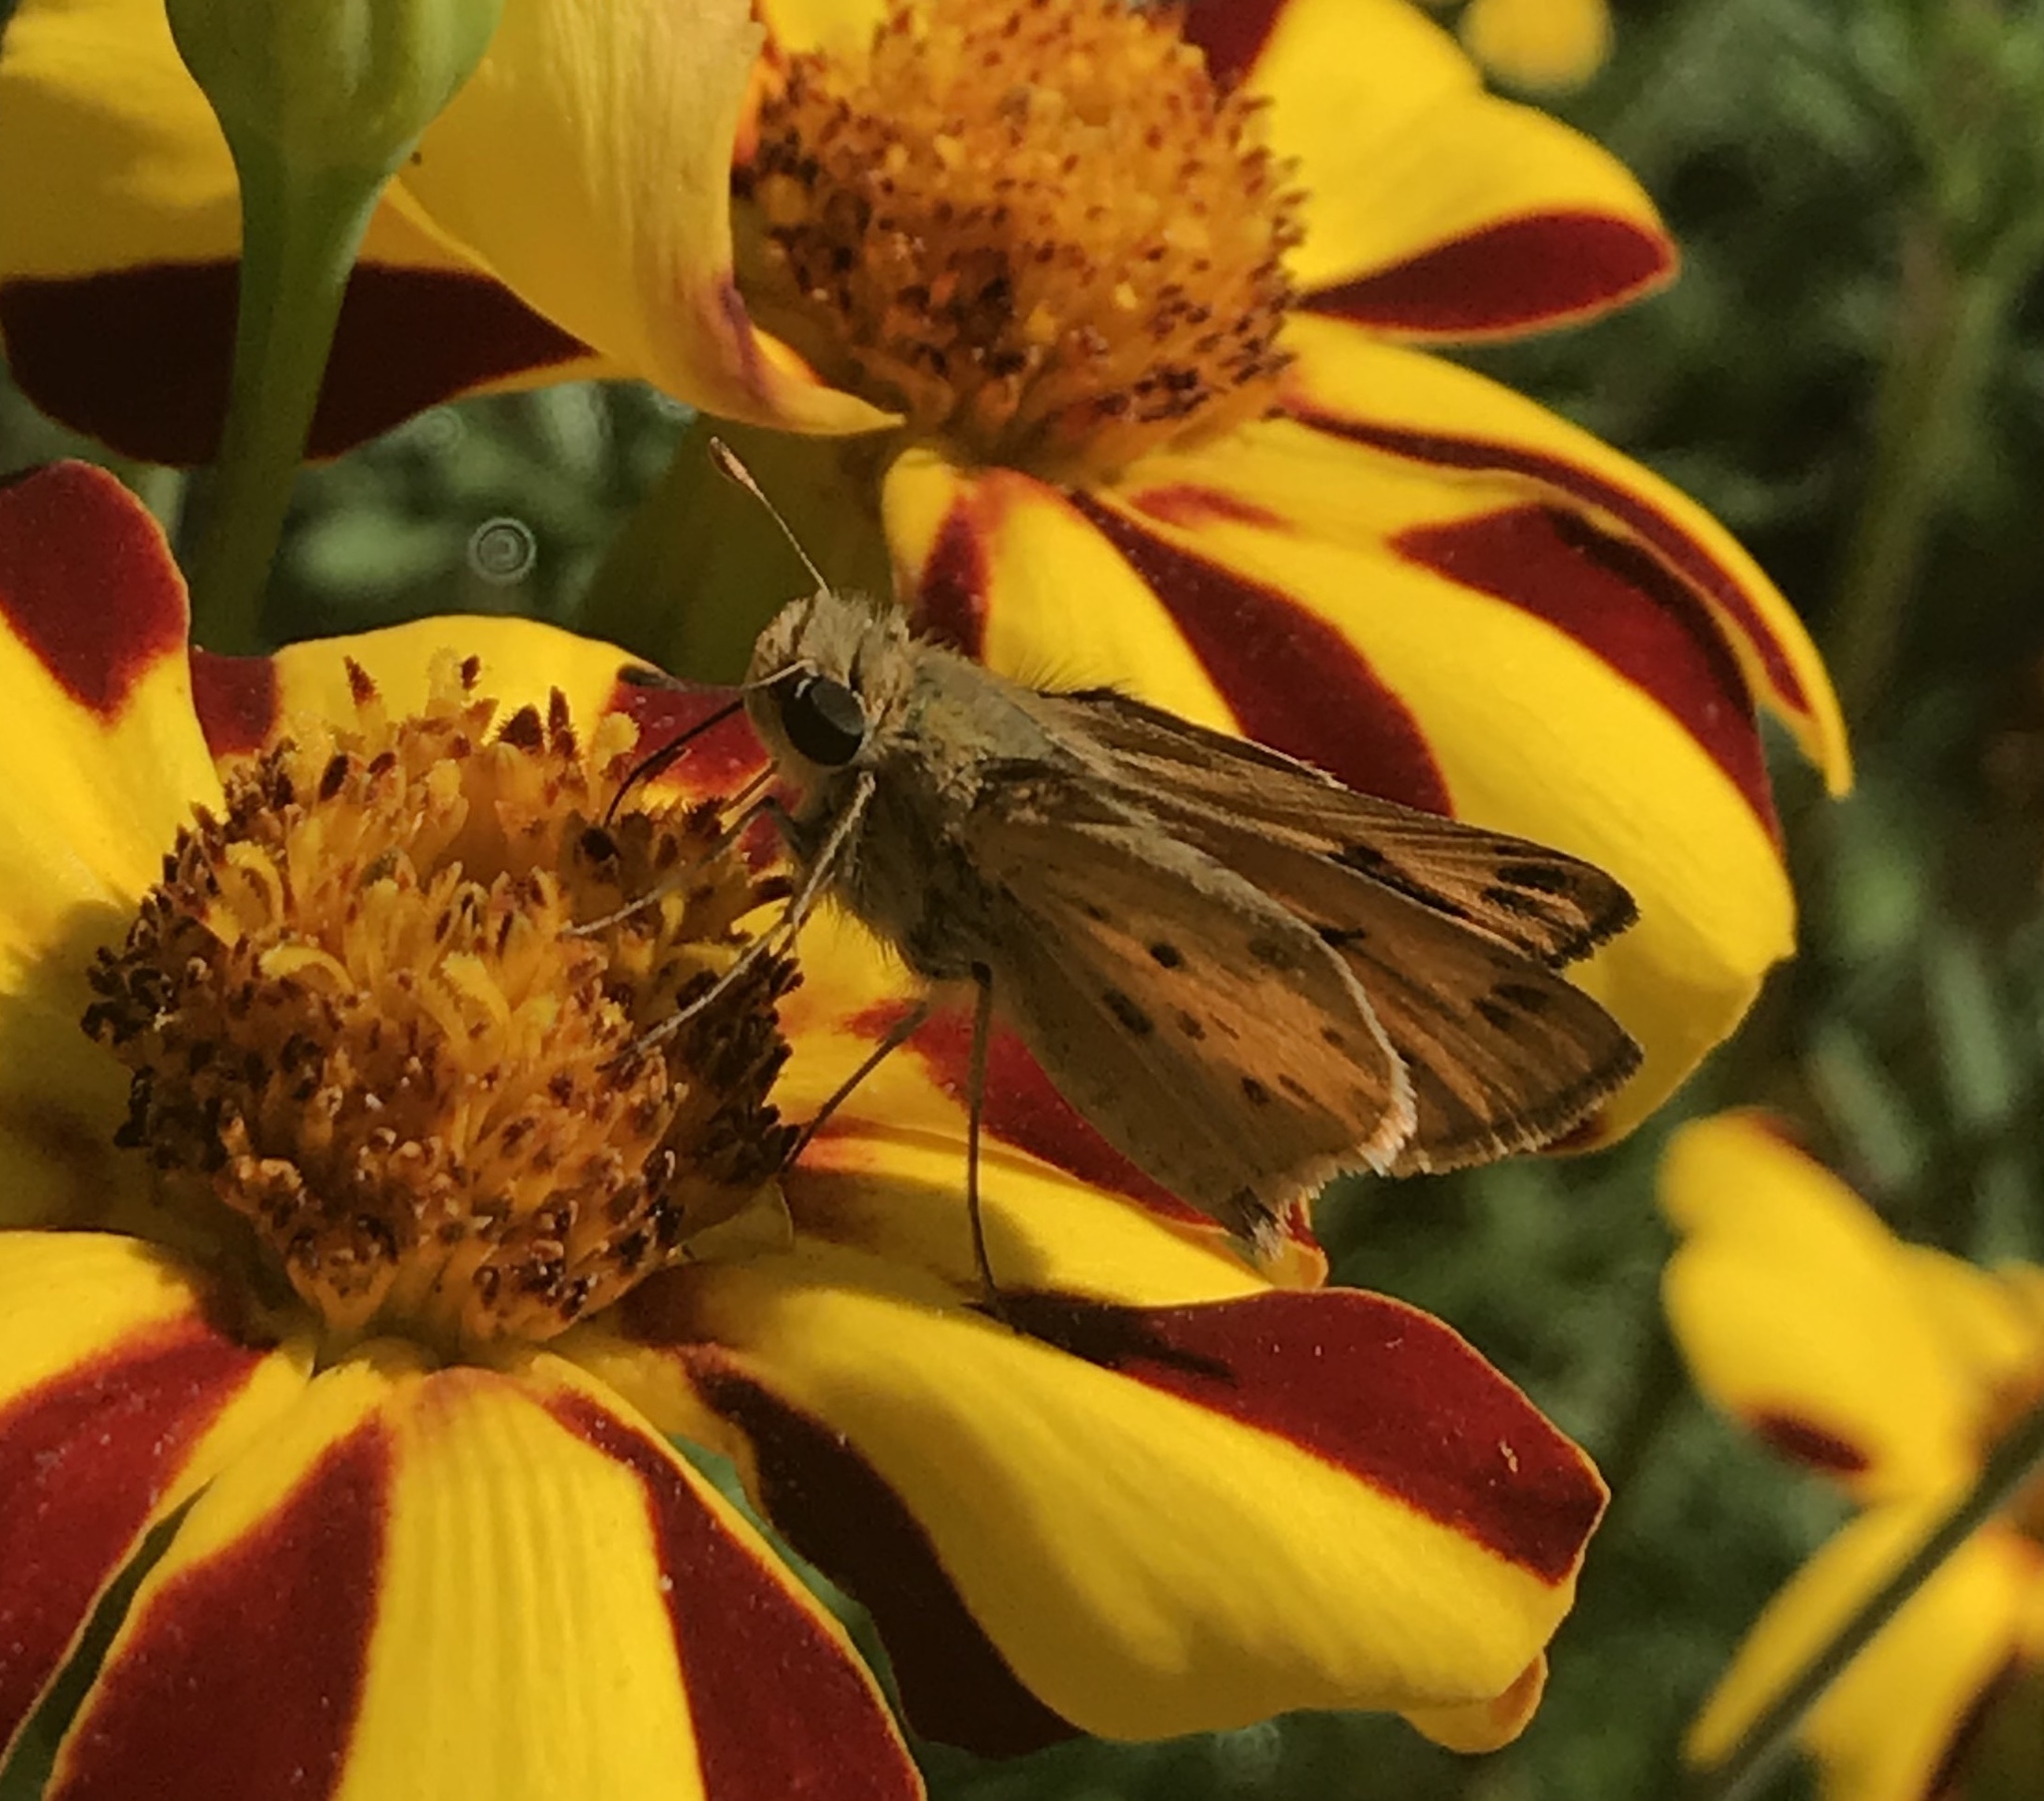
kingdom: Animalia
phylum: Arthropoda
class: Insecta
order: Lepidoptera
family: Hesperiidae
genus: Hylephila
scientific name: Hylephila phyleus
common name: Fiery skipper
